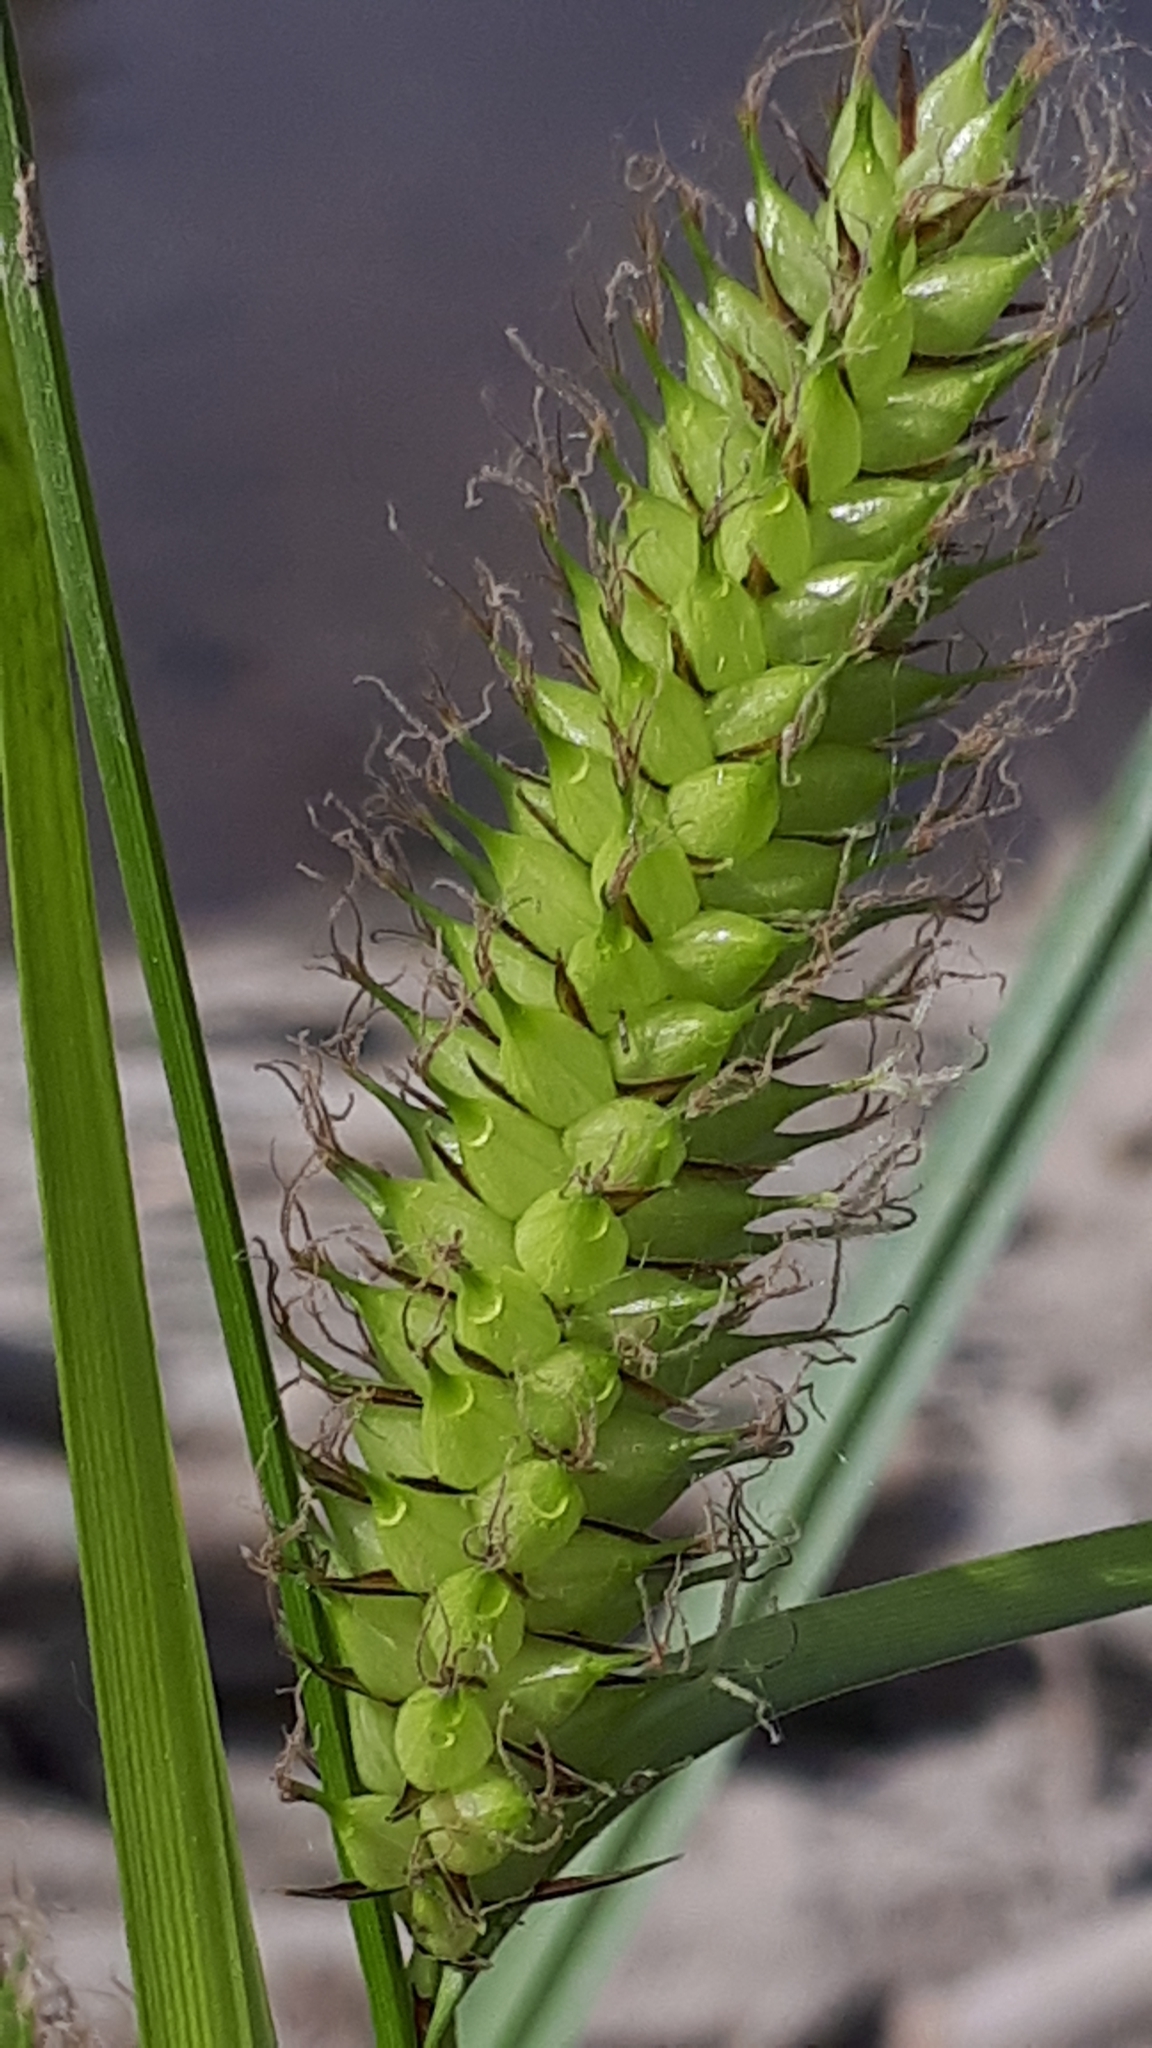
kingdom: Plantae
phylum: Tracheophyta
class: Liliopsida
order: Poales
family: Cyperaceae
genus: Carex
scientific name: Carex rostrata
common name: Bottle sedge
